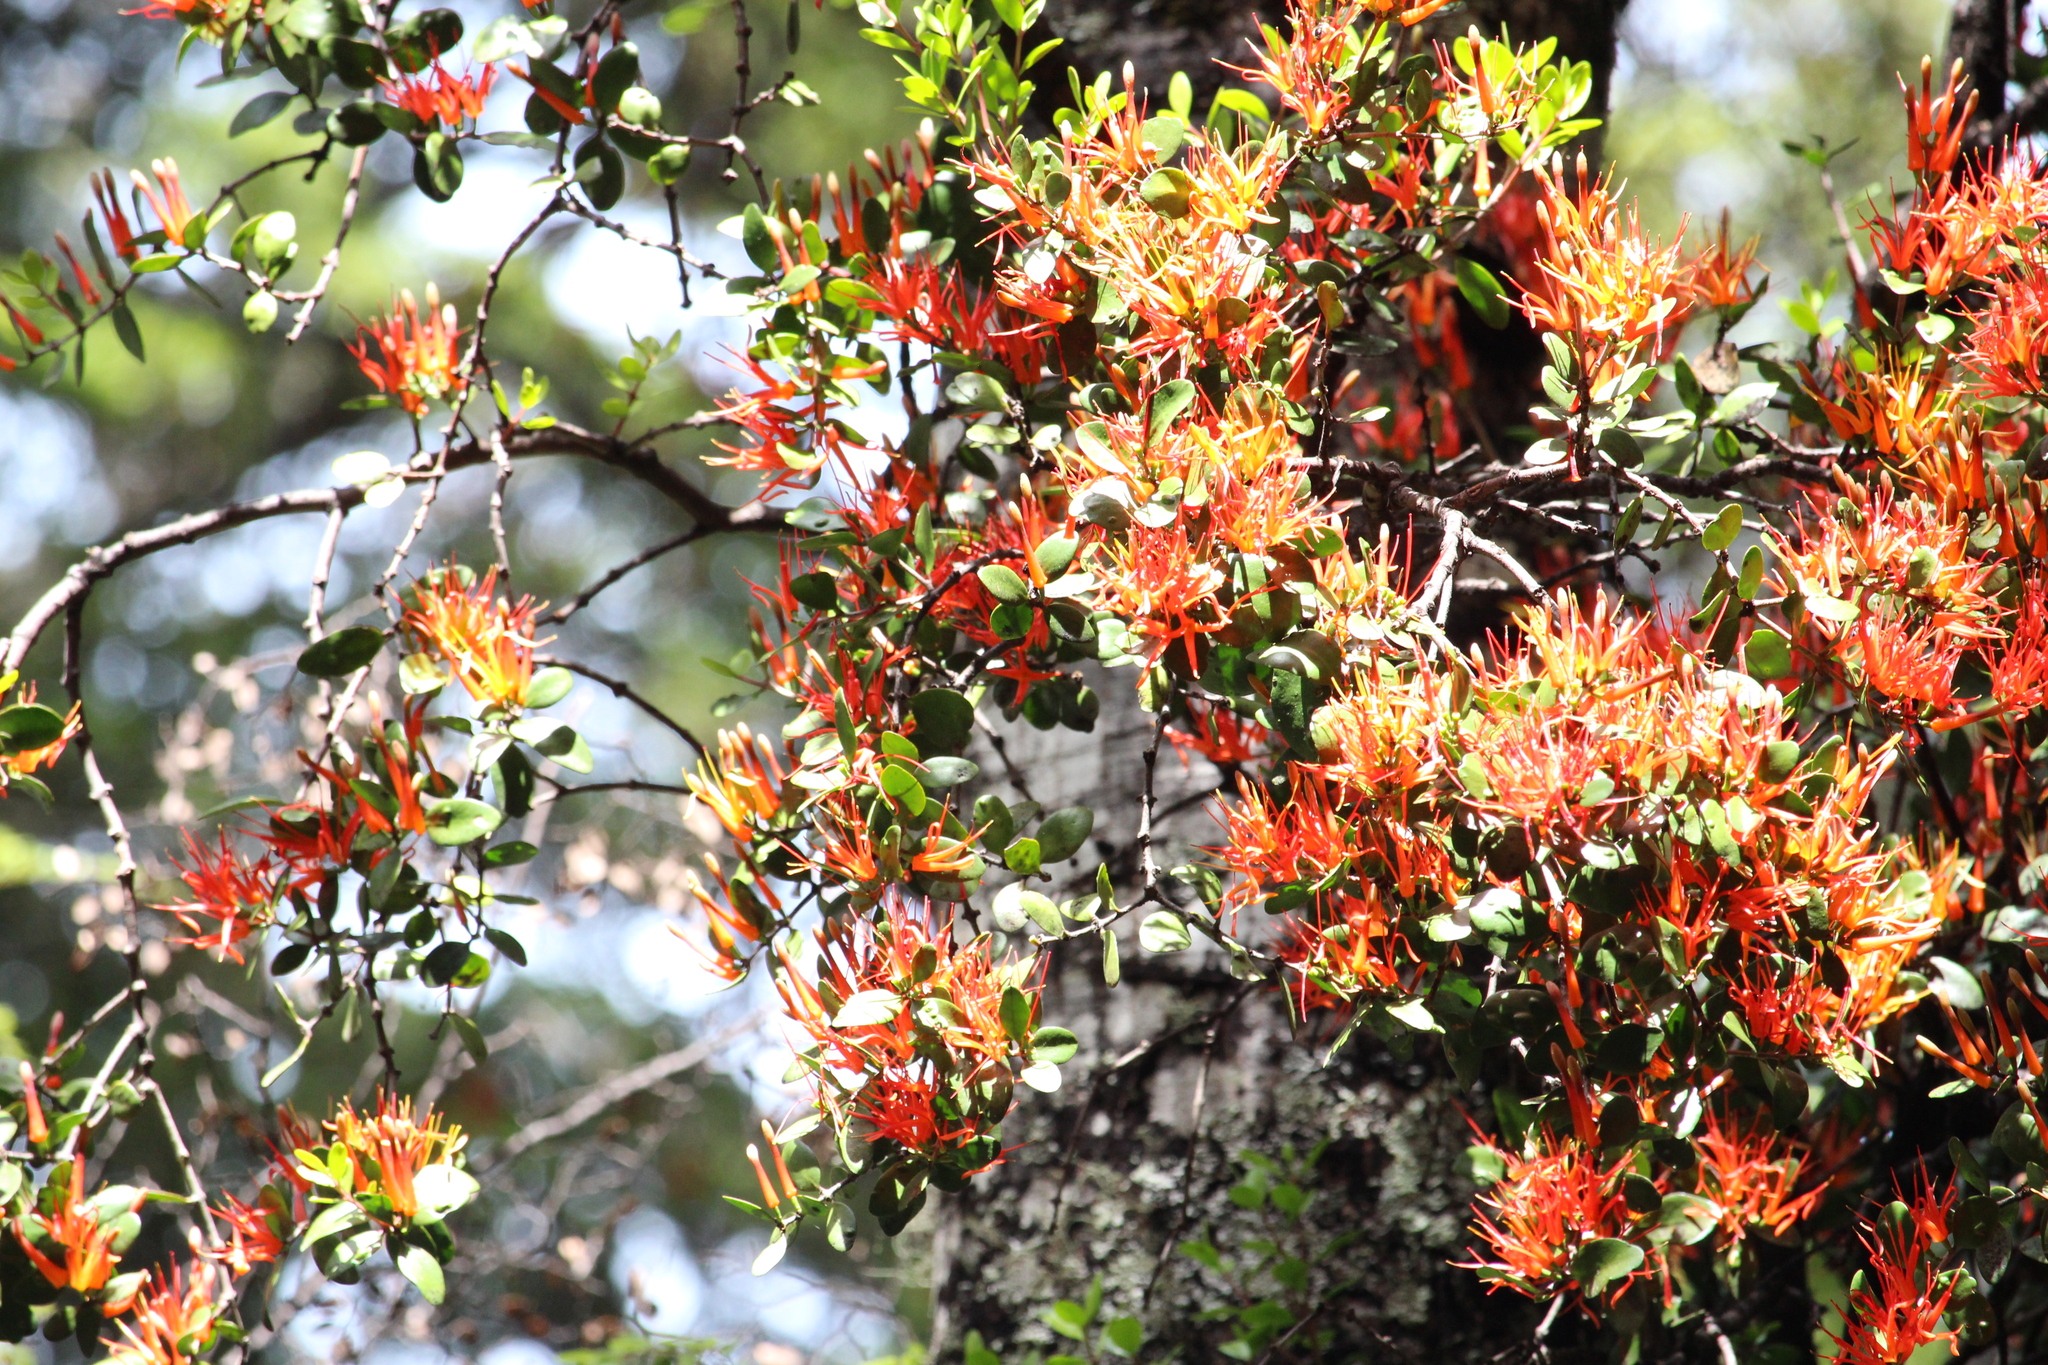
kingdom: Plantae
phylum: Tracheophyta
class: Magnoliopsida
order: Santalales
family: Loranthaceae
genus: Peraxilla
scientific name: Peraxilla tetrapetala
